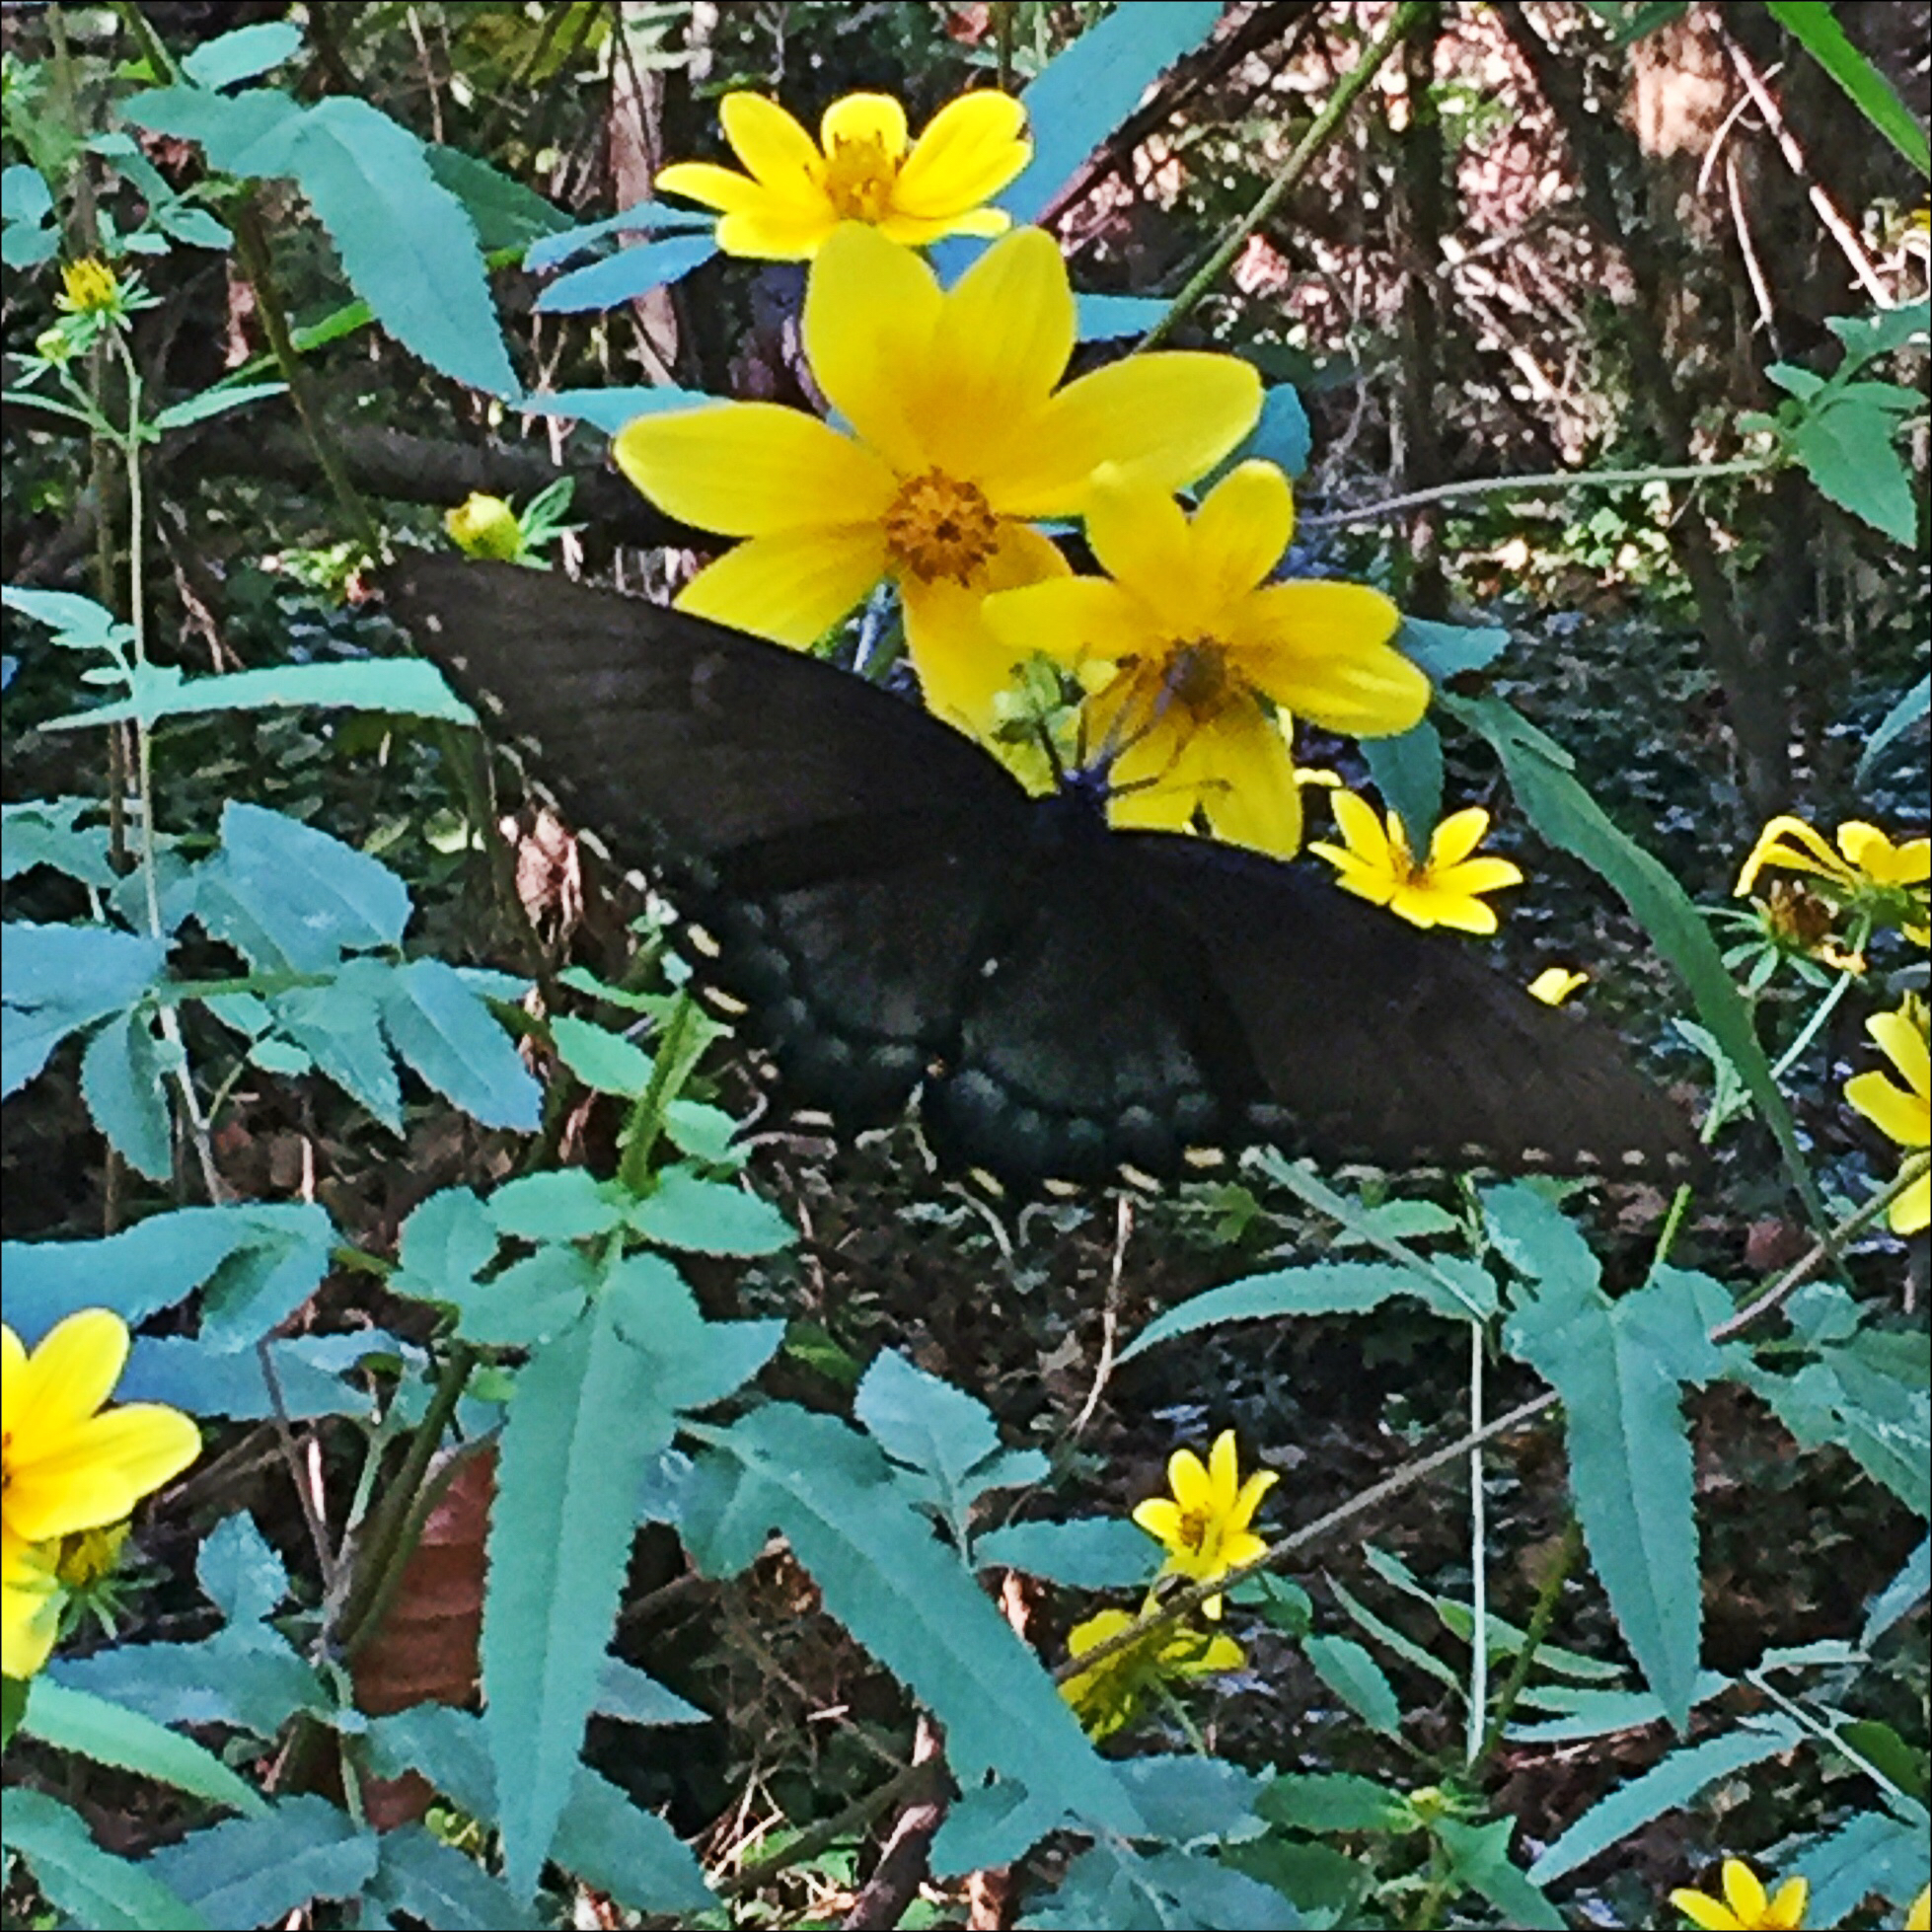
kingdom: Animalia
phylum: Arthropoda
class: Insecta
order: Lepidoptera
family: Papilionidae
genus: Papilio
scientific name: Papilio glaucus
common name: Tiger swallowtail
